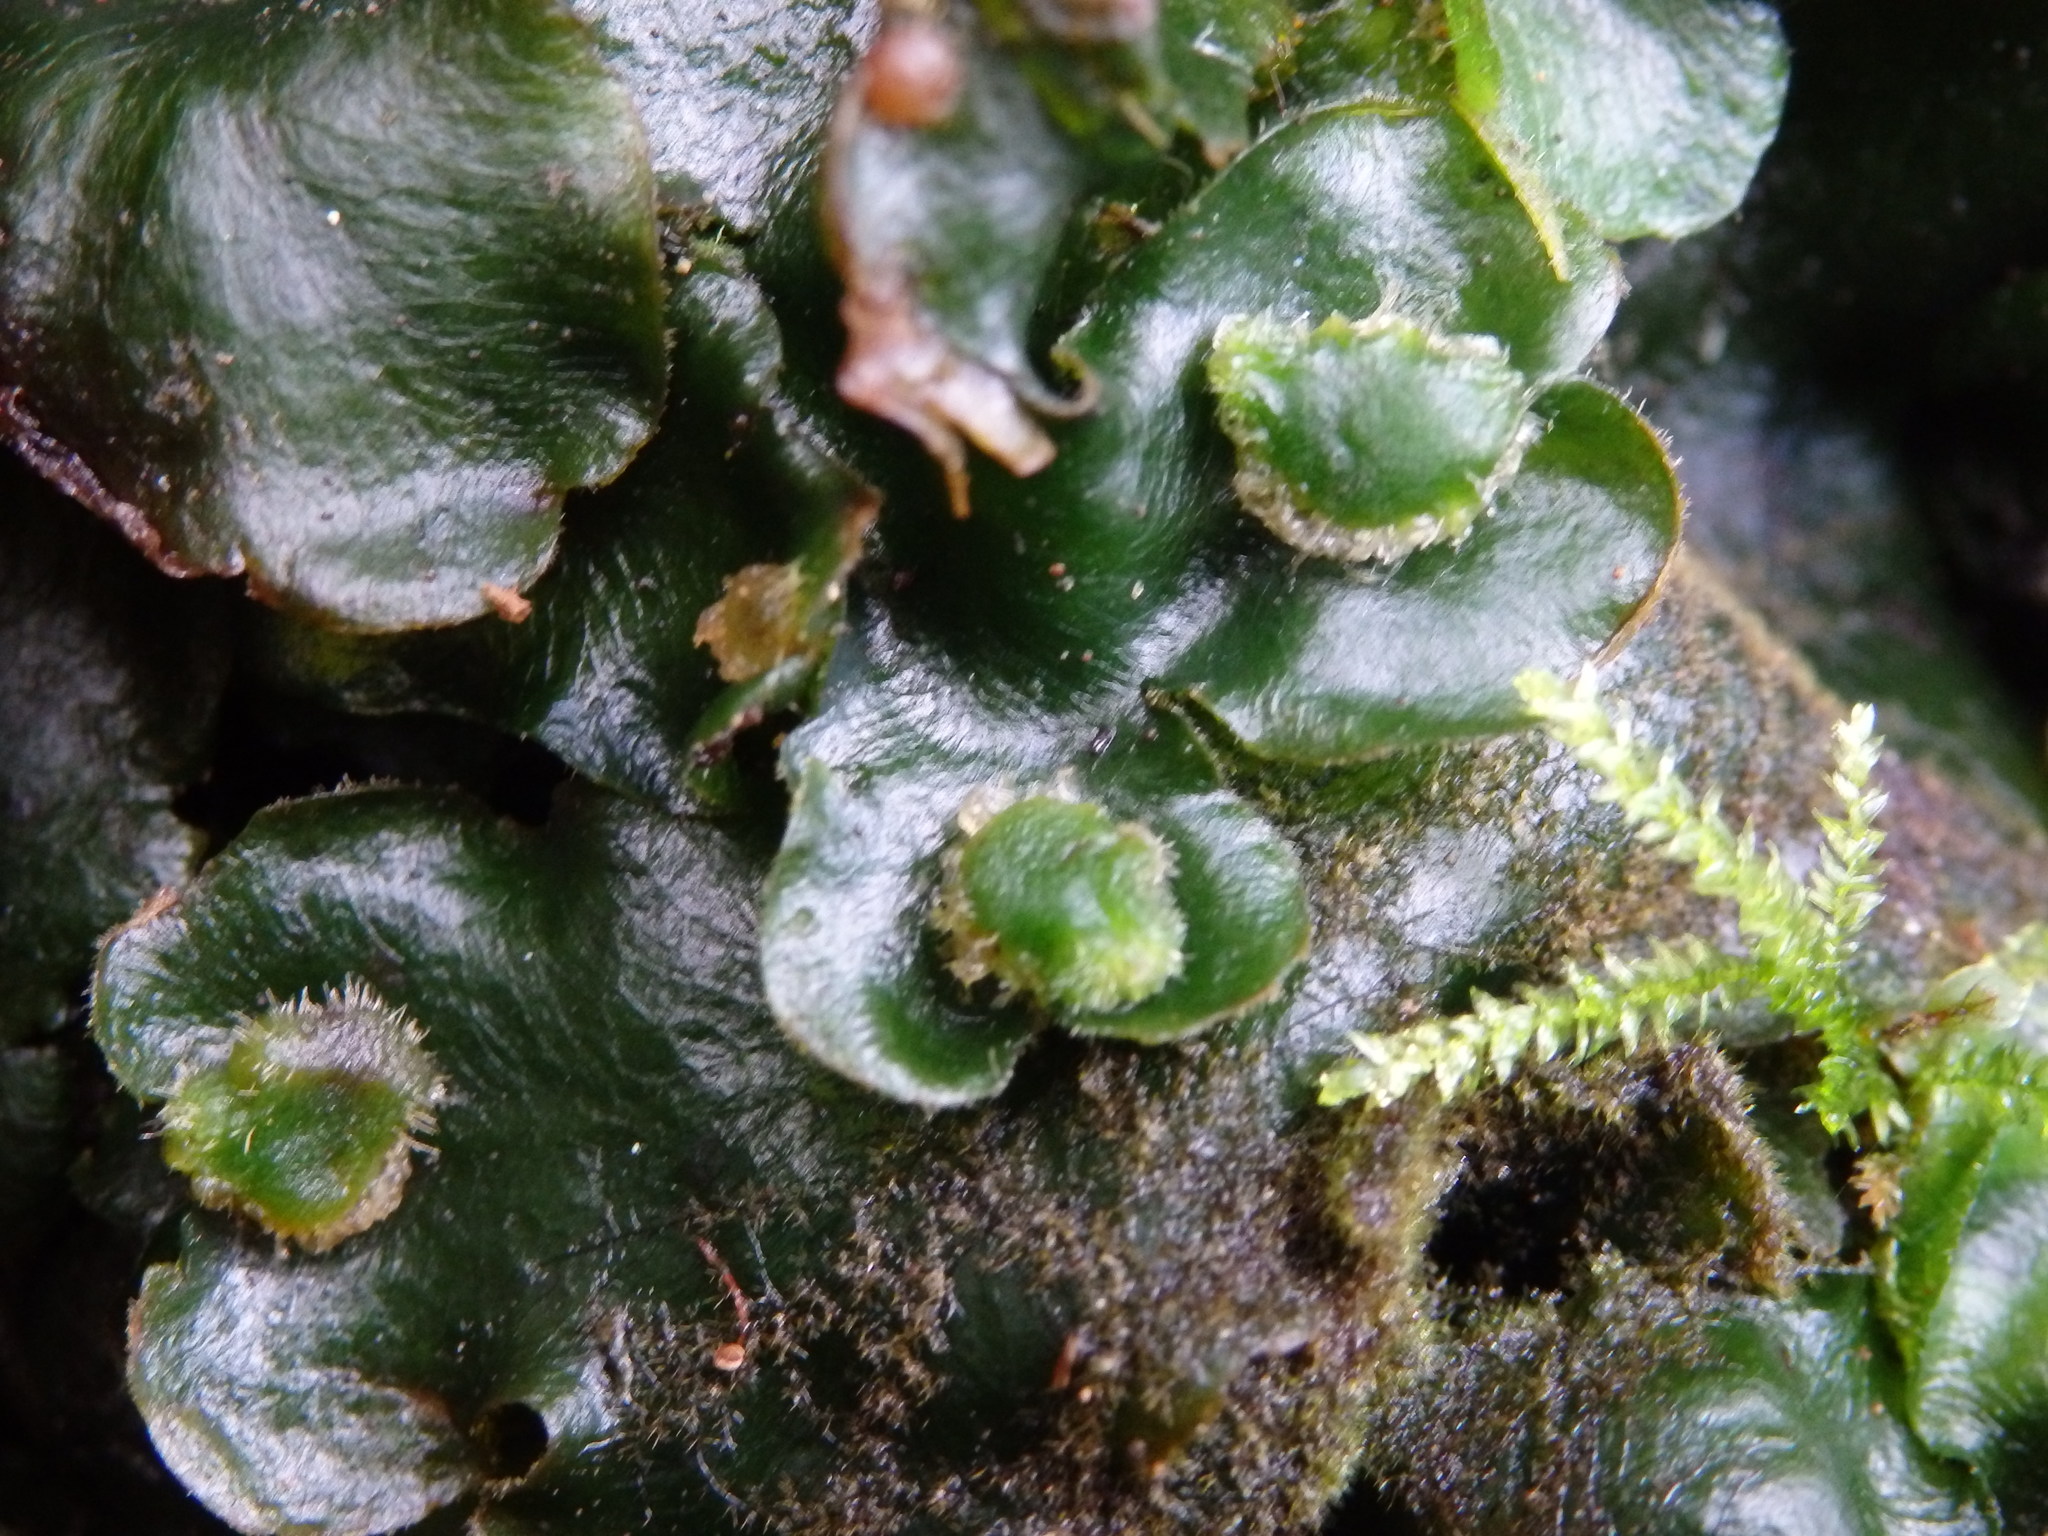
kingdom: Plantae
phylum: Marchantiophyta
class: Marchantiopsida
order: Marchantiales
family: Dumortieraceae
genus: Dumortiera
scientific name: Dumortiera hirsuta
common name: Dumortier's liverwort
